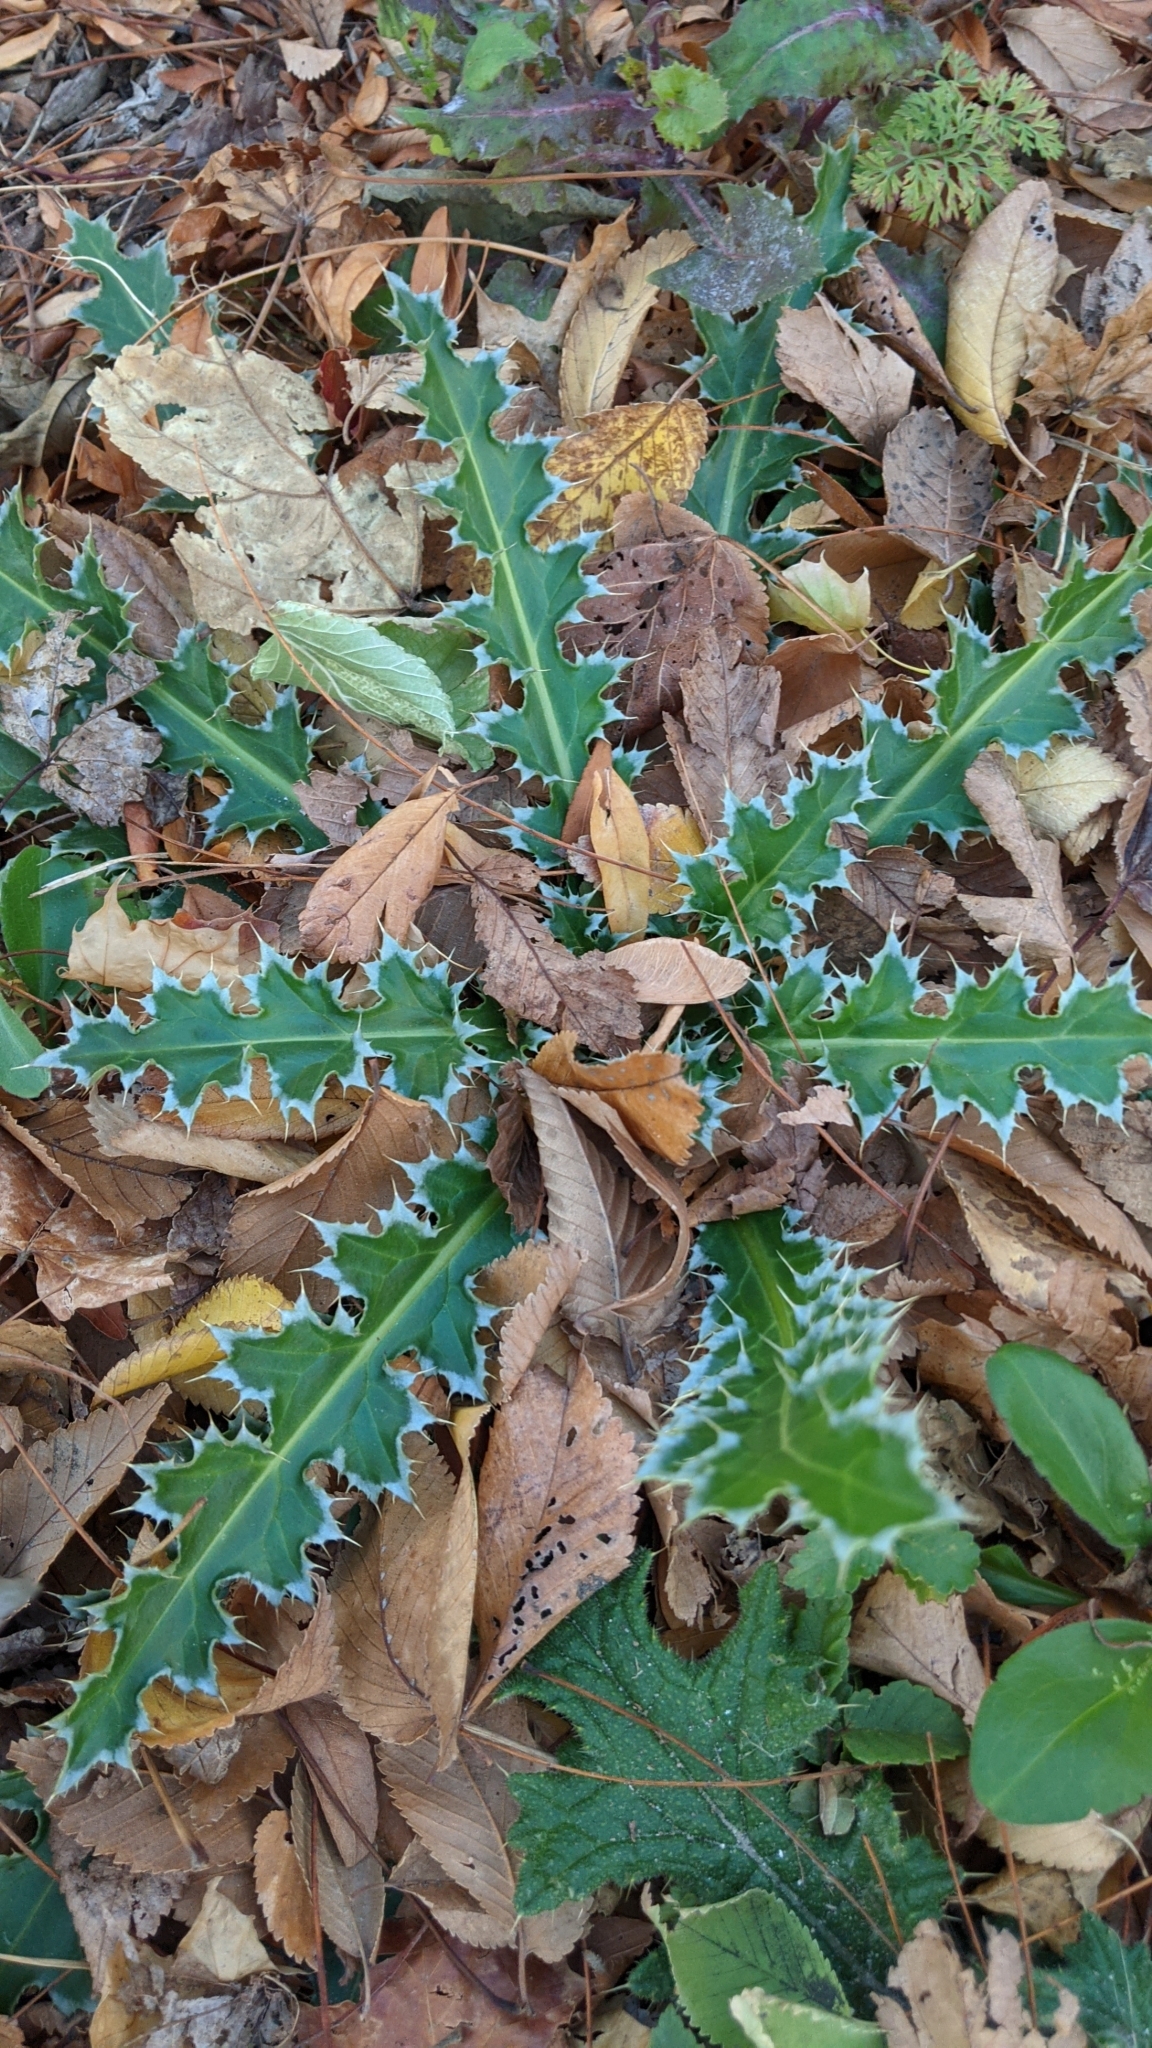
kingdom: Plantae
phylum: Tracheophyta
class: Magnoliopsida
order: Asterales
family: Asteraceae
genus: Carduus
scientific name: Carduus nutans
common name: Musk thistle
